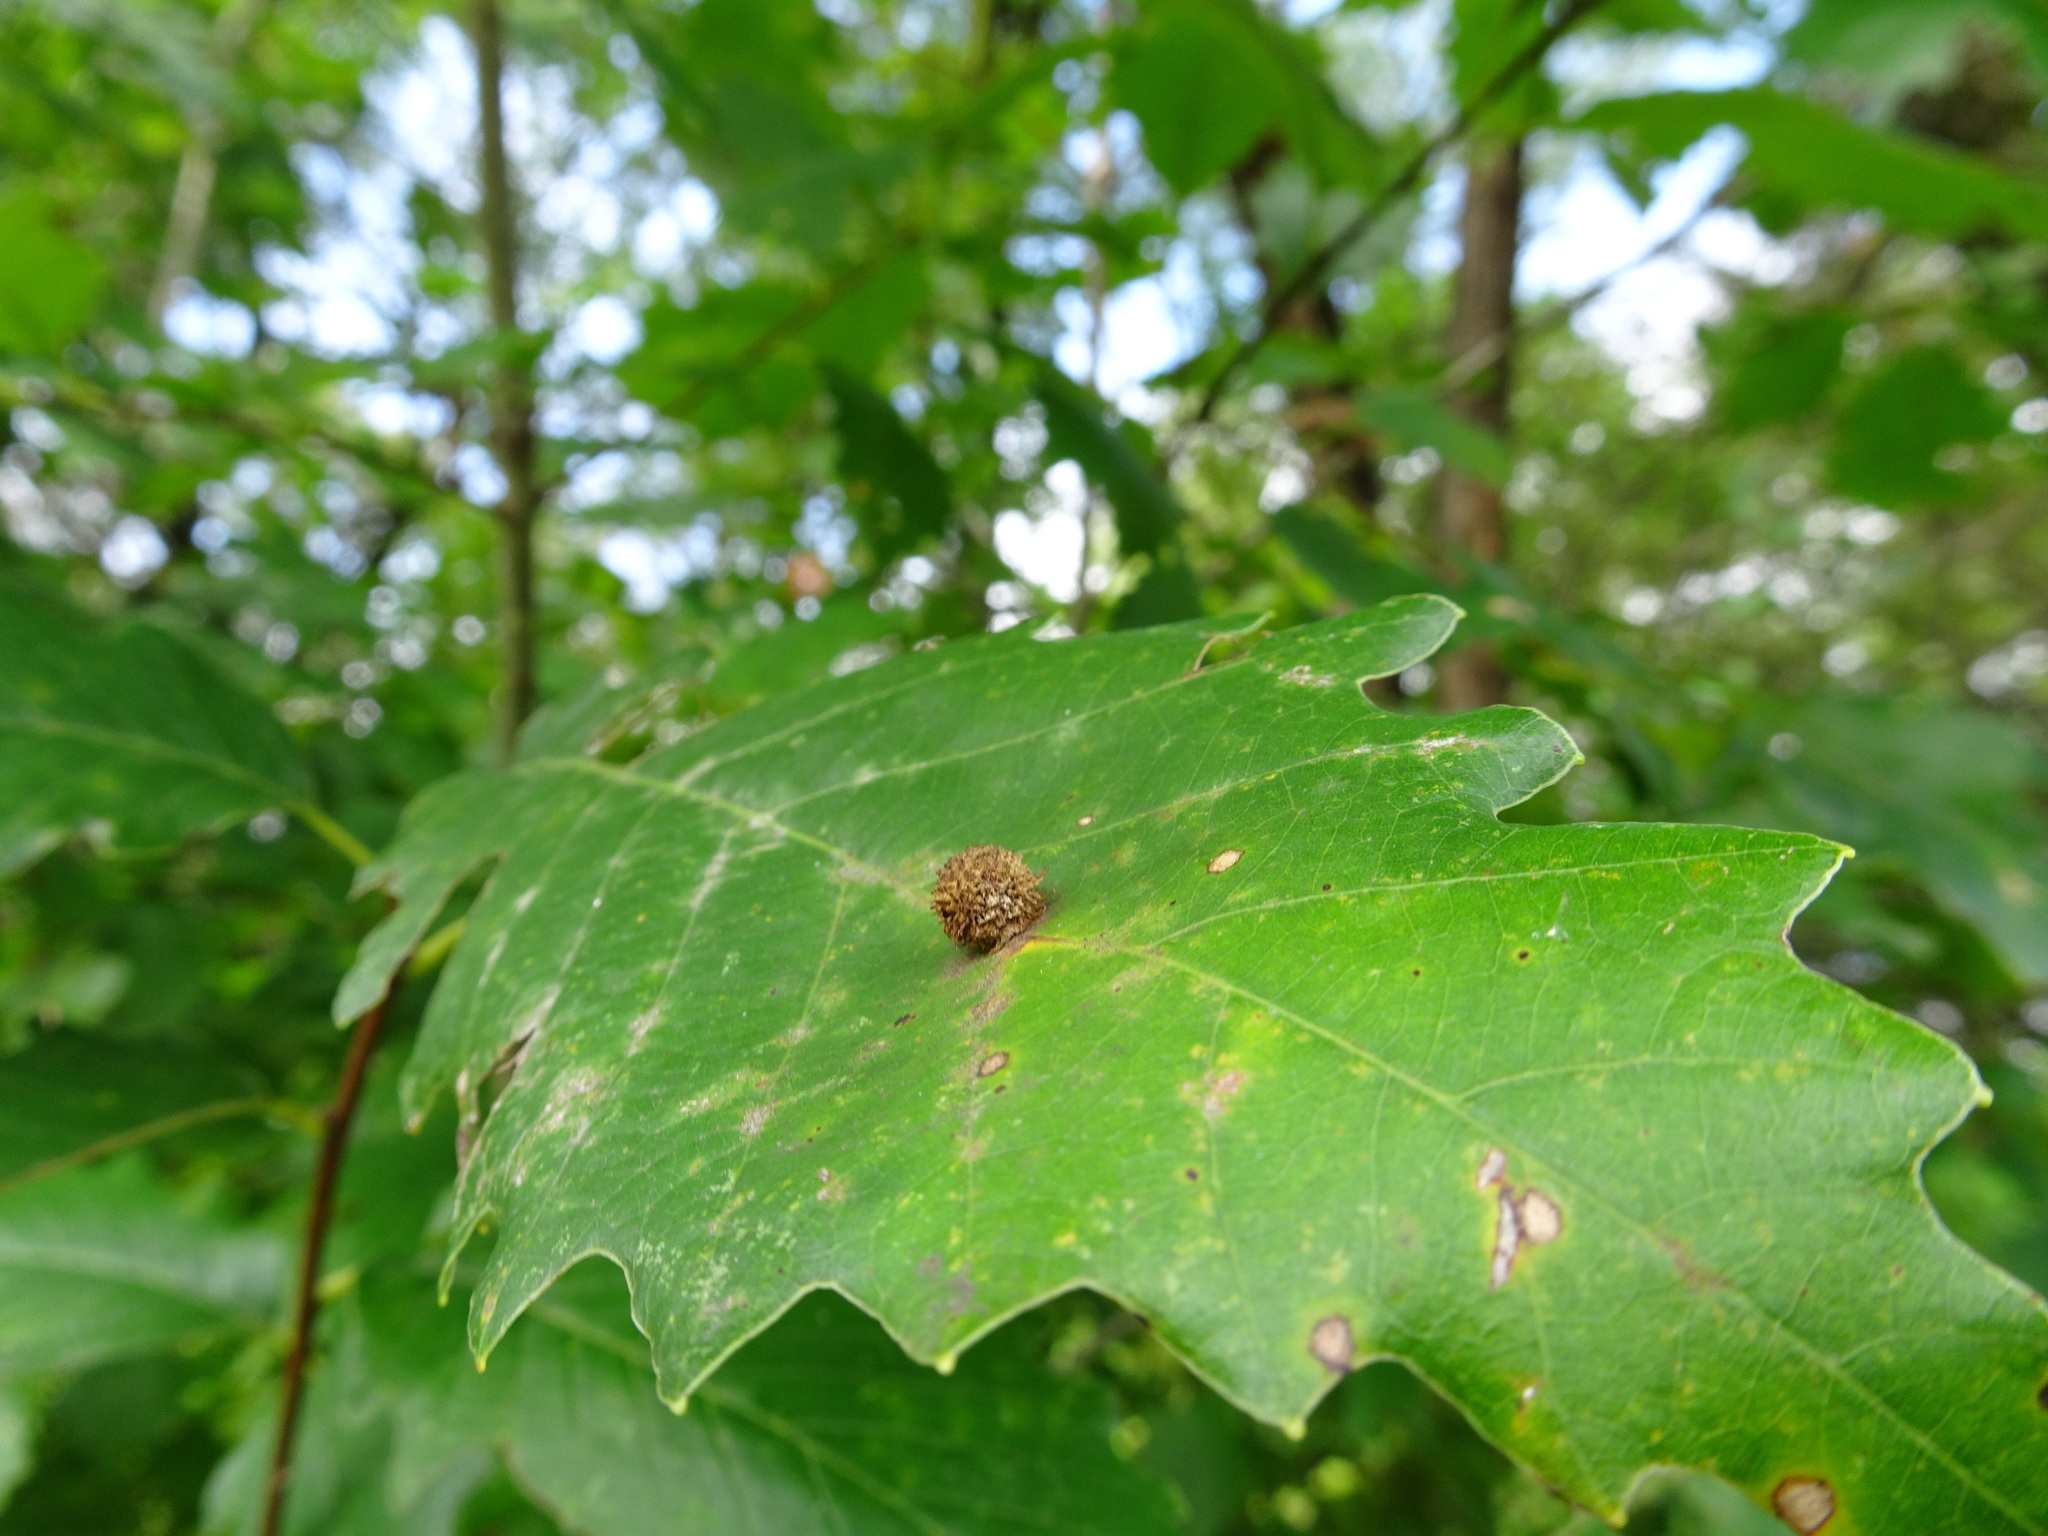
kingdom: Animalia
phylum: Arthropoda
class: Insecta
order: Hymenoptera
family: Cynipidae
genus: Acraspis
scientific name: Acraspis
